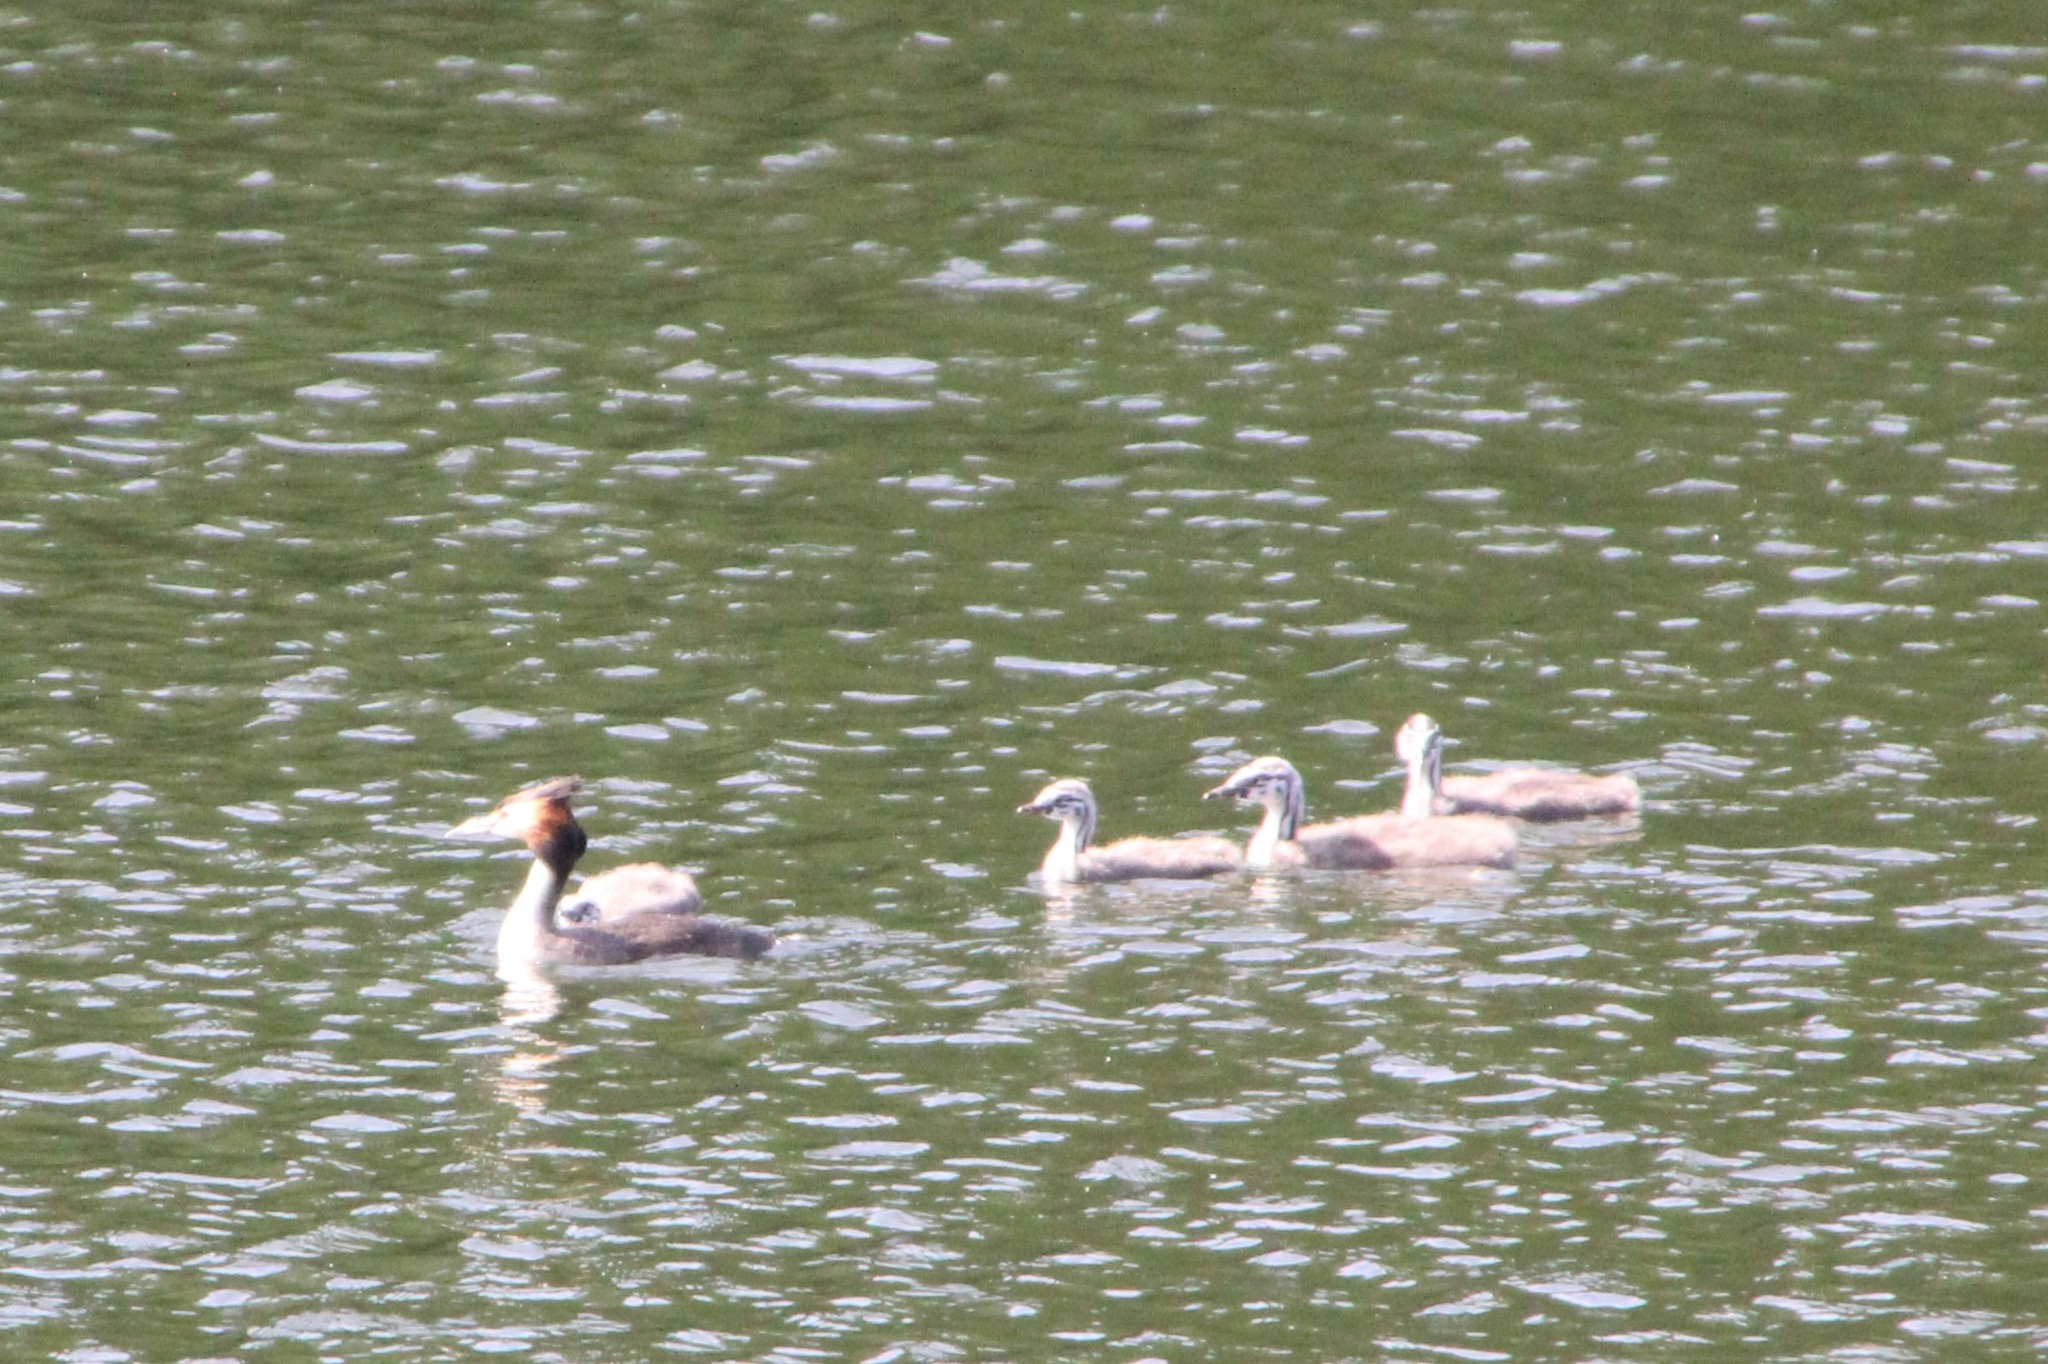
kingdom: Animalia
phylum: Chordata
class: Aves
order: Podicipediformes
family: Podicipedidae
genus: Podiceps
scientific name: Podiceps cristatus
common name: Great crested grebe
